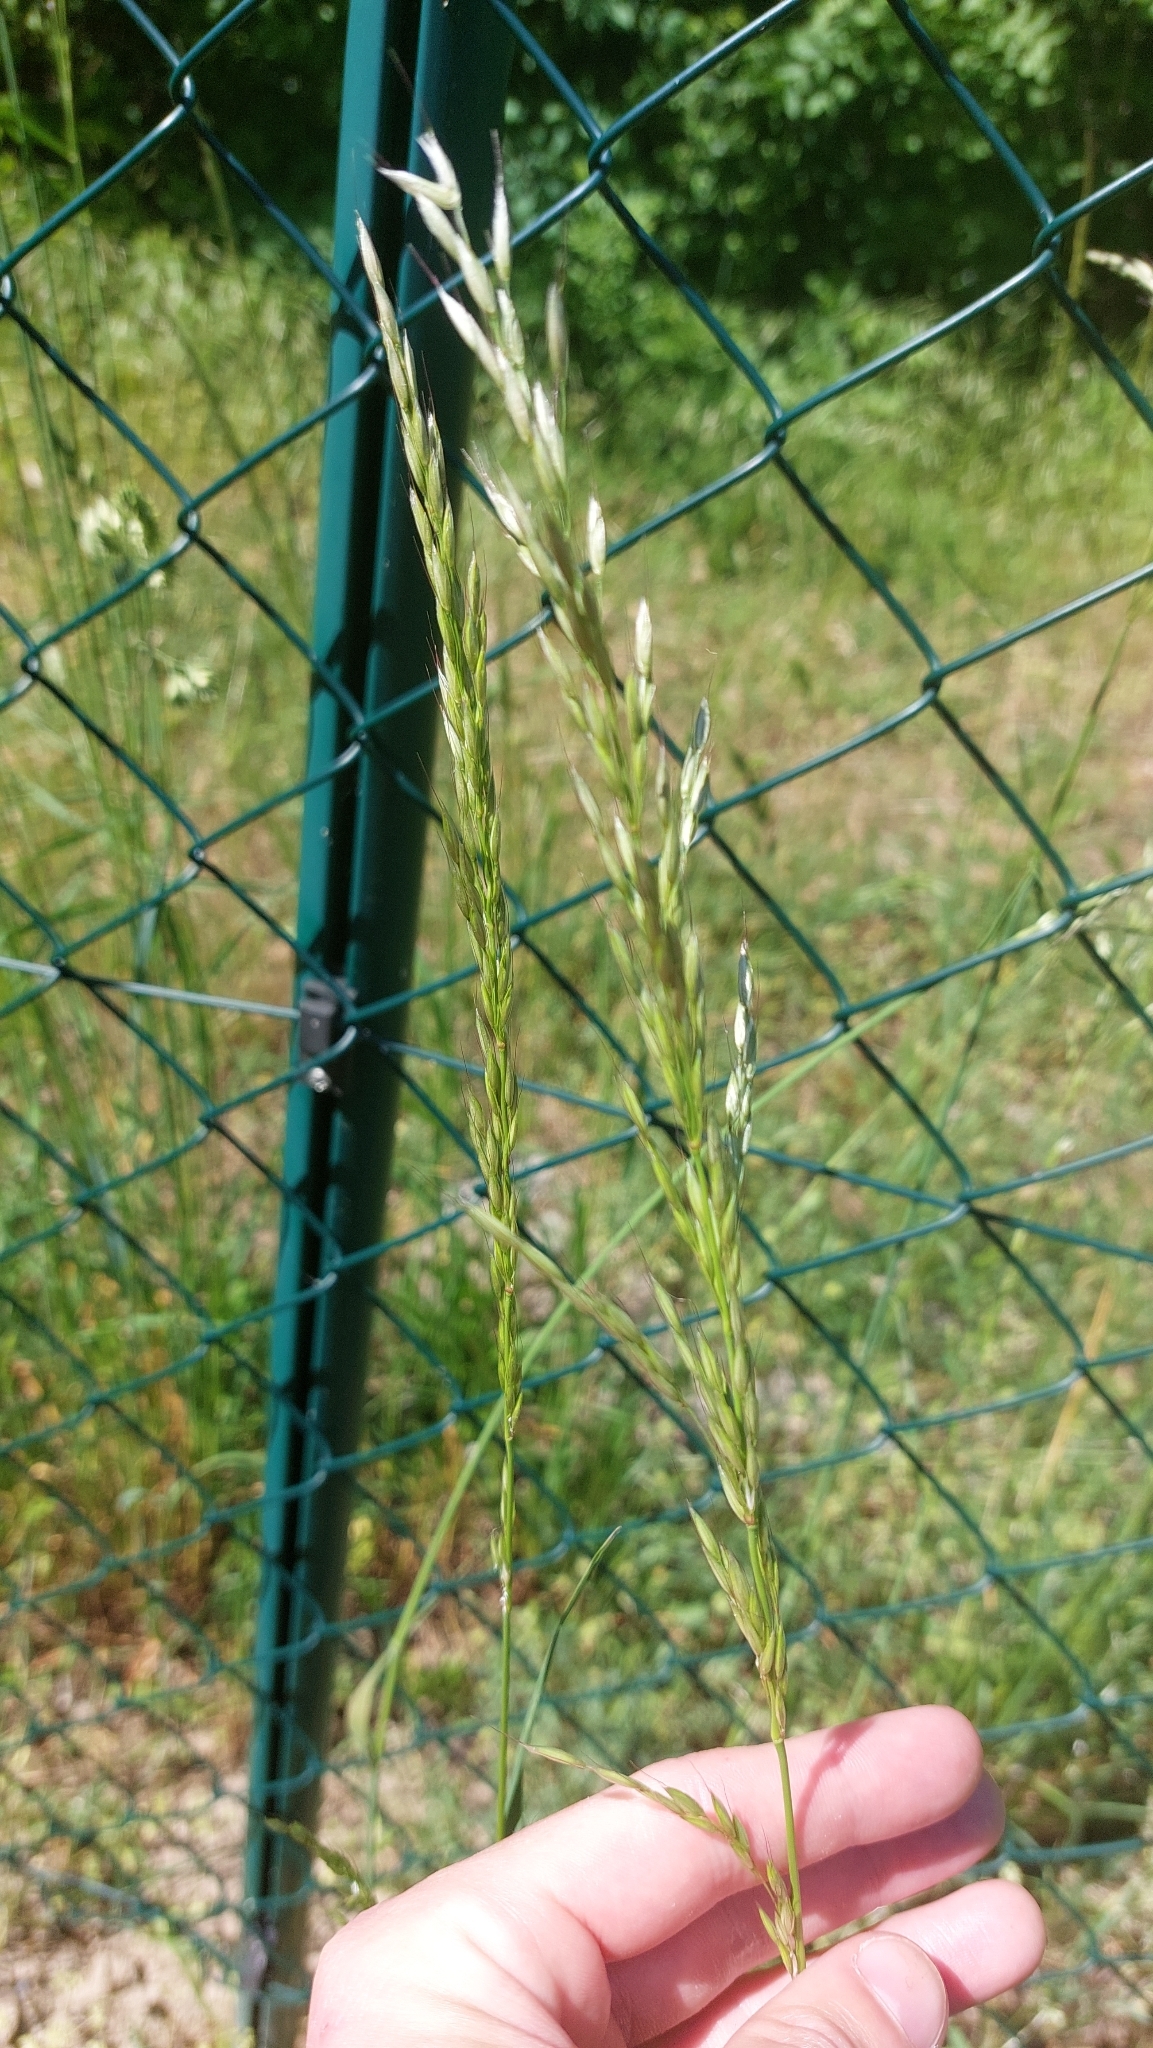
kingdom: Plantae
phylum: Tracheophyta
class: Liliopsida
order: Poales
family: Poaceae
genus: Arrhenatherum
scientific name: Arrhenatherum elatius
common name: Tall oatgrass
